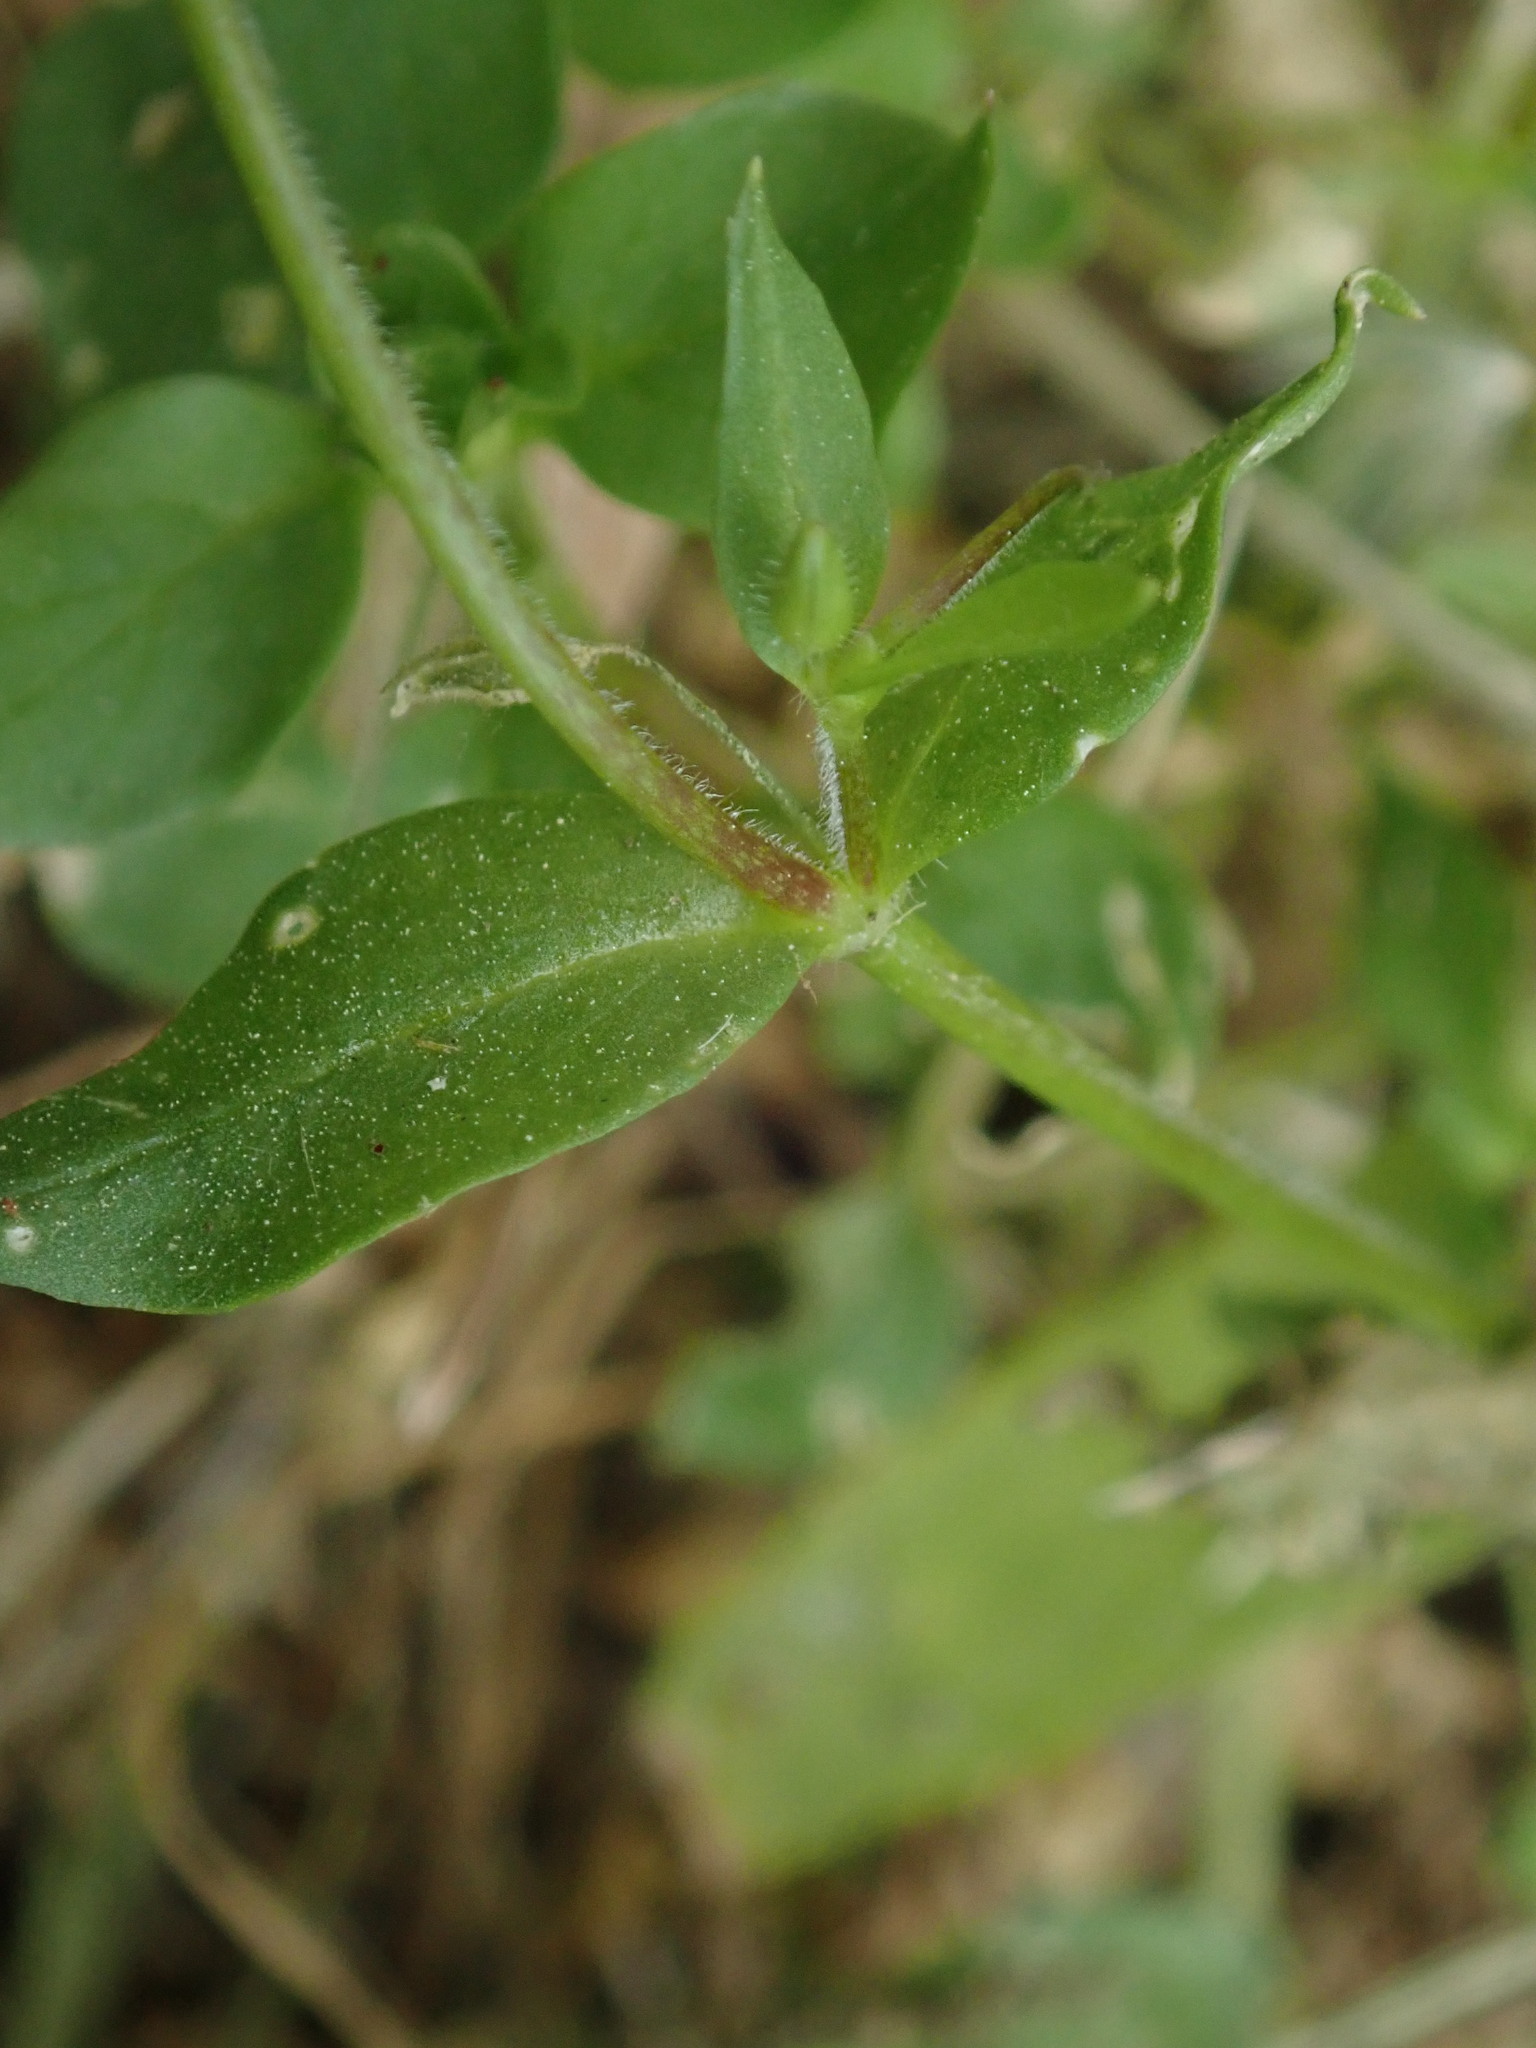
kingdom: Plantae
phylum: Tracheophyta
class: Magnoliopsida
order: Caryophyllales
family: Caryophyllaceae
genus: Stellaria
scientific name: Stellaria media
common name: Common chickweed
